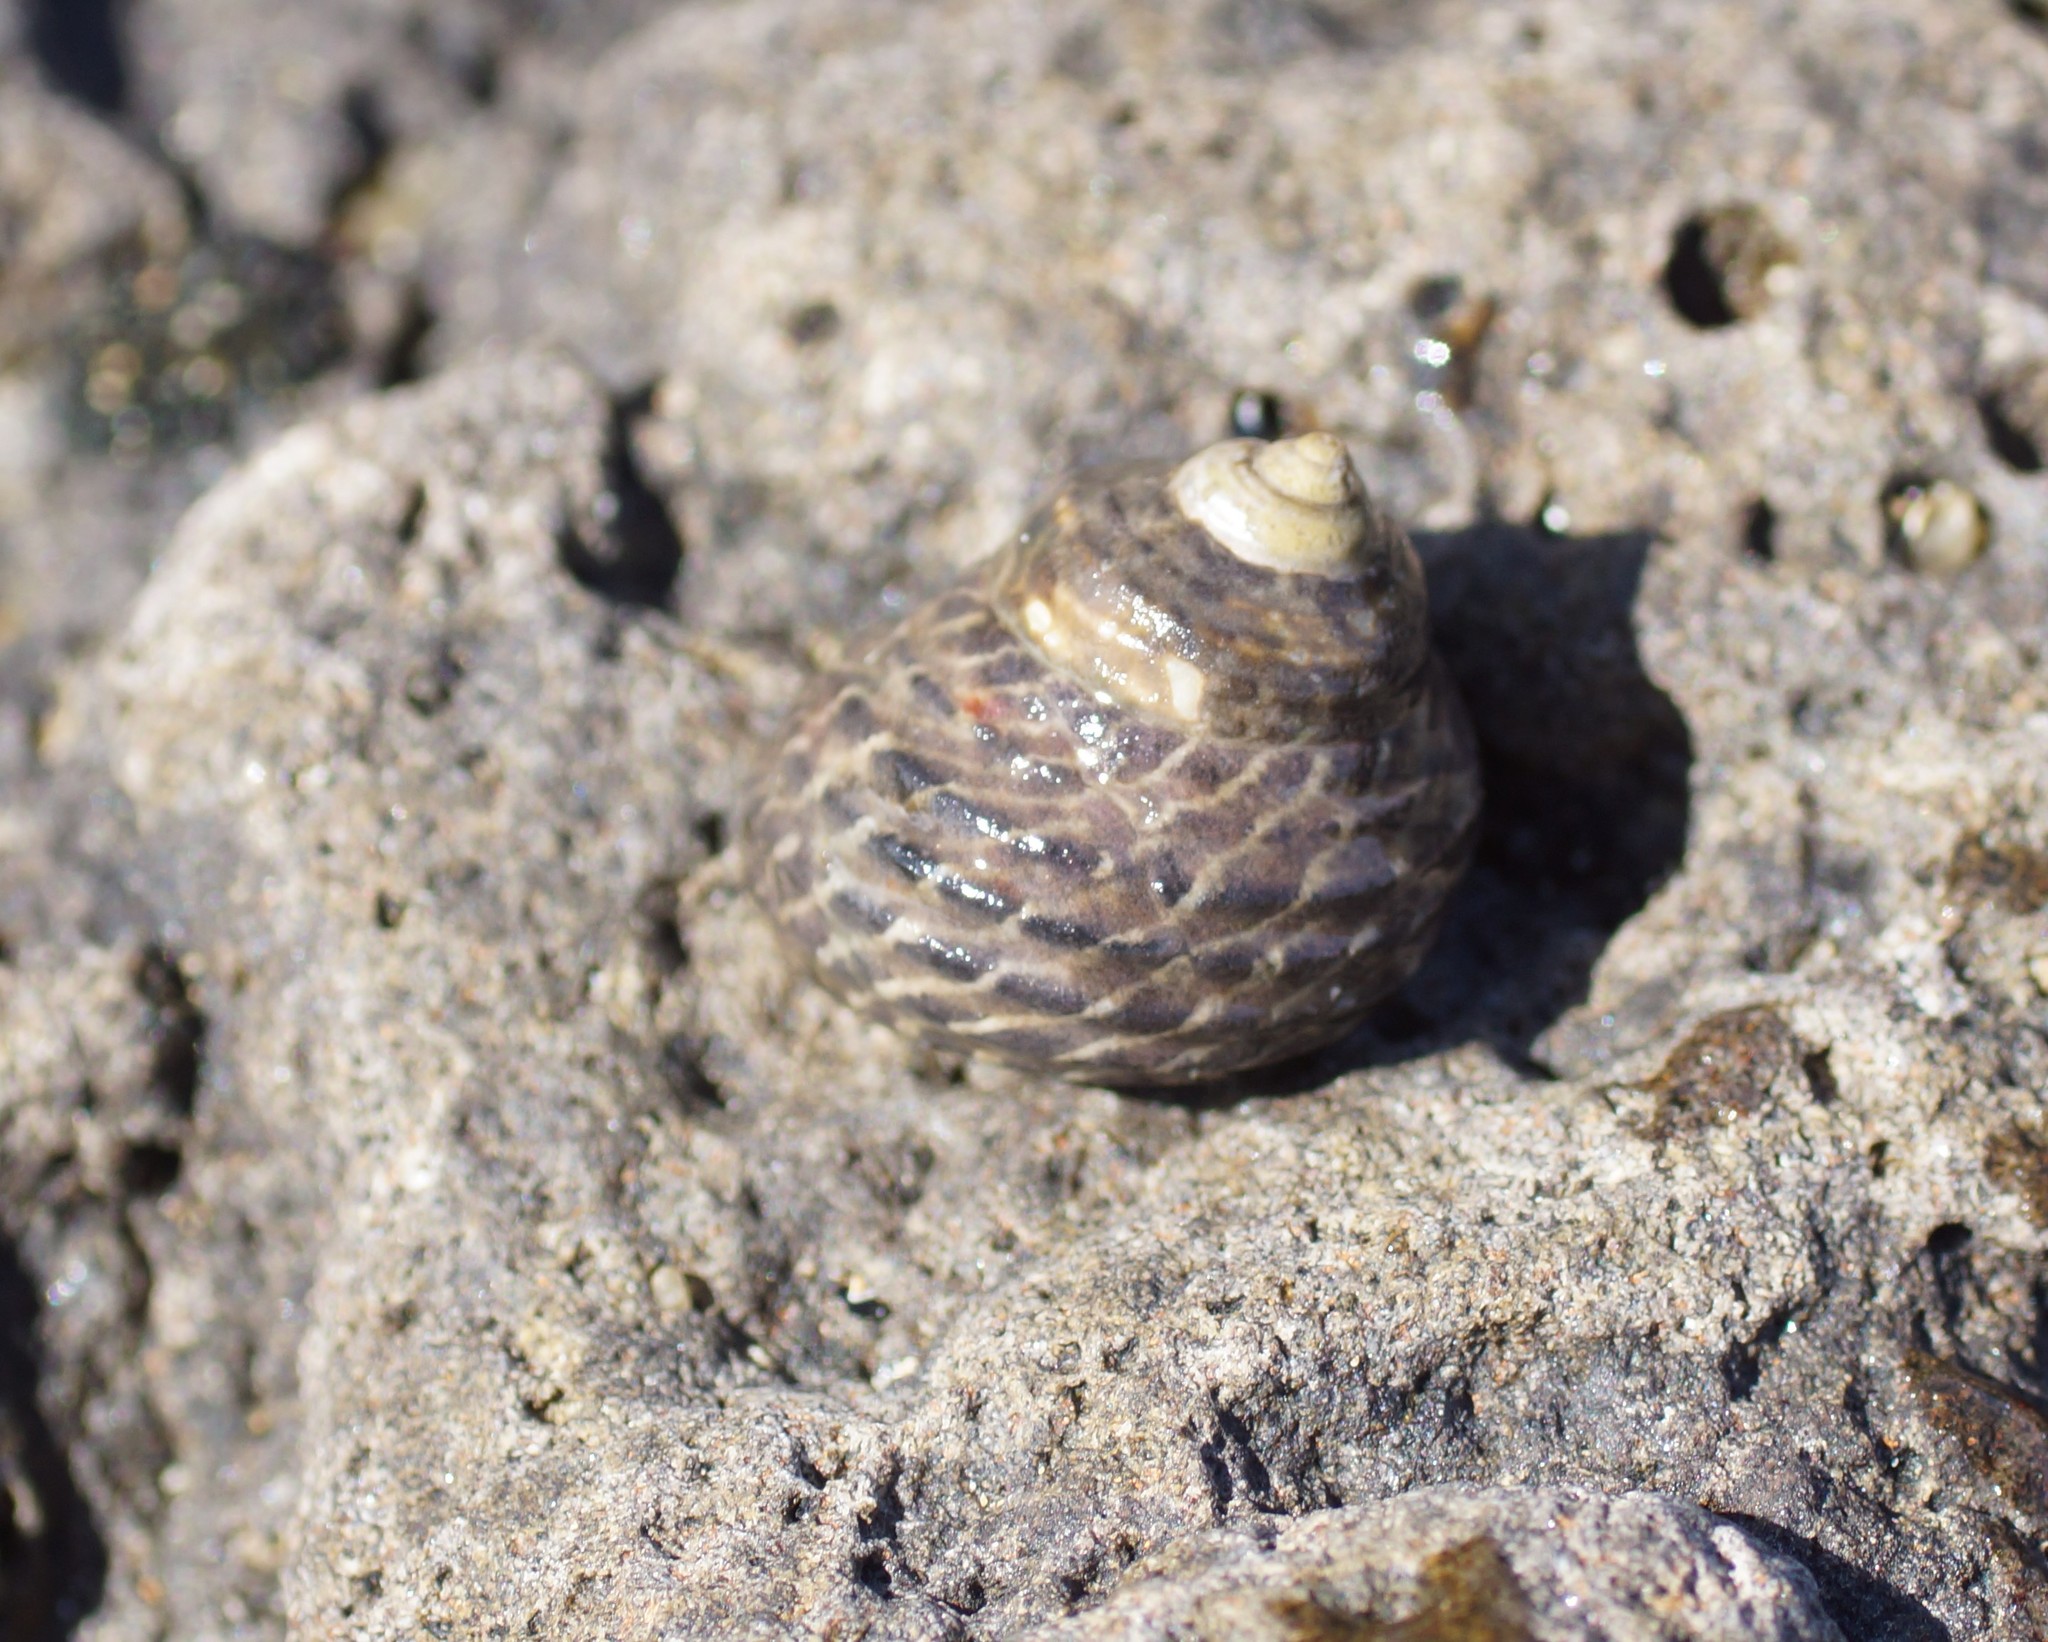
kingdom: Animalia
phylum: Mollusca
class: Gastropoda
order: Trochida
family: Trochidae
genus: Austrocochlea
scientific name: Austrocochlea constricta
